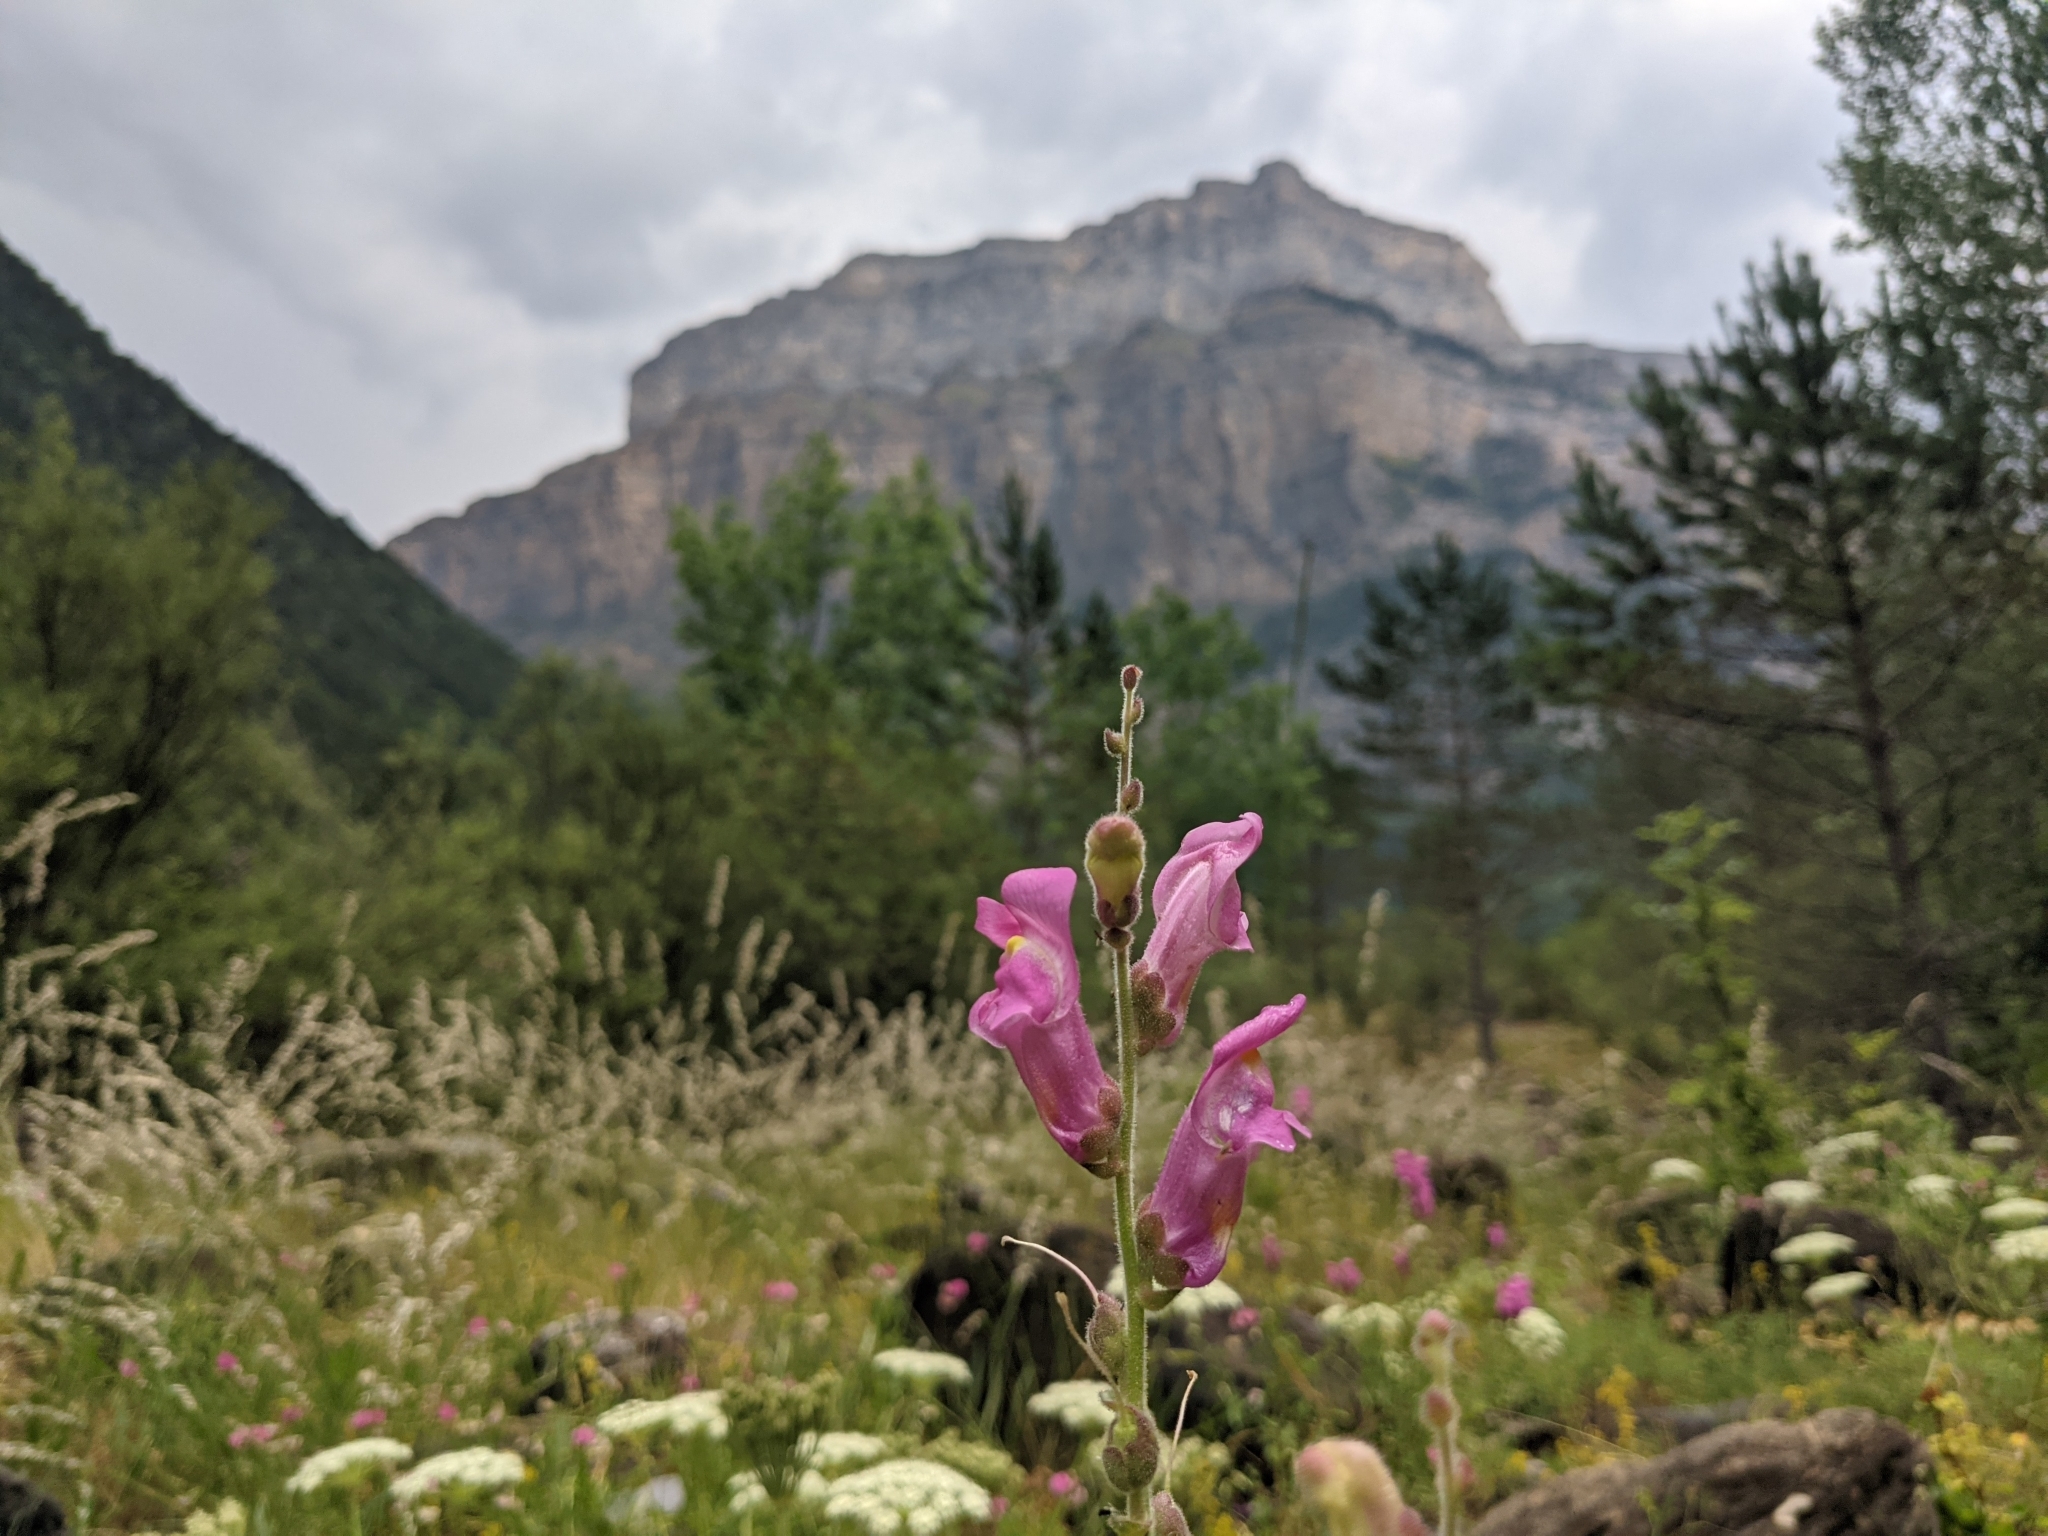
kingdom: Plantae
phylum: Tracheophyta
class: Magnoliopsida
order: Lamiales
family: Plantaginaceae
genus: Antirrhinum
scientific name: Antirrhinum majus
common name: Snapdragon
